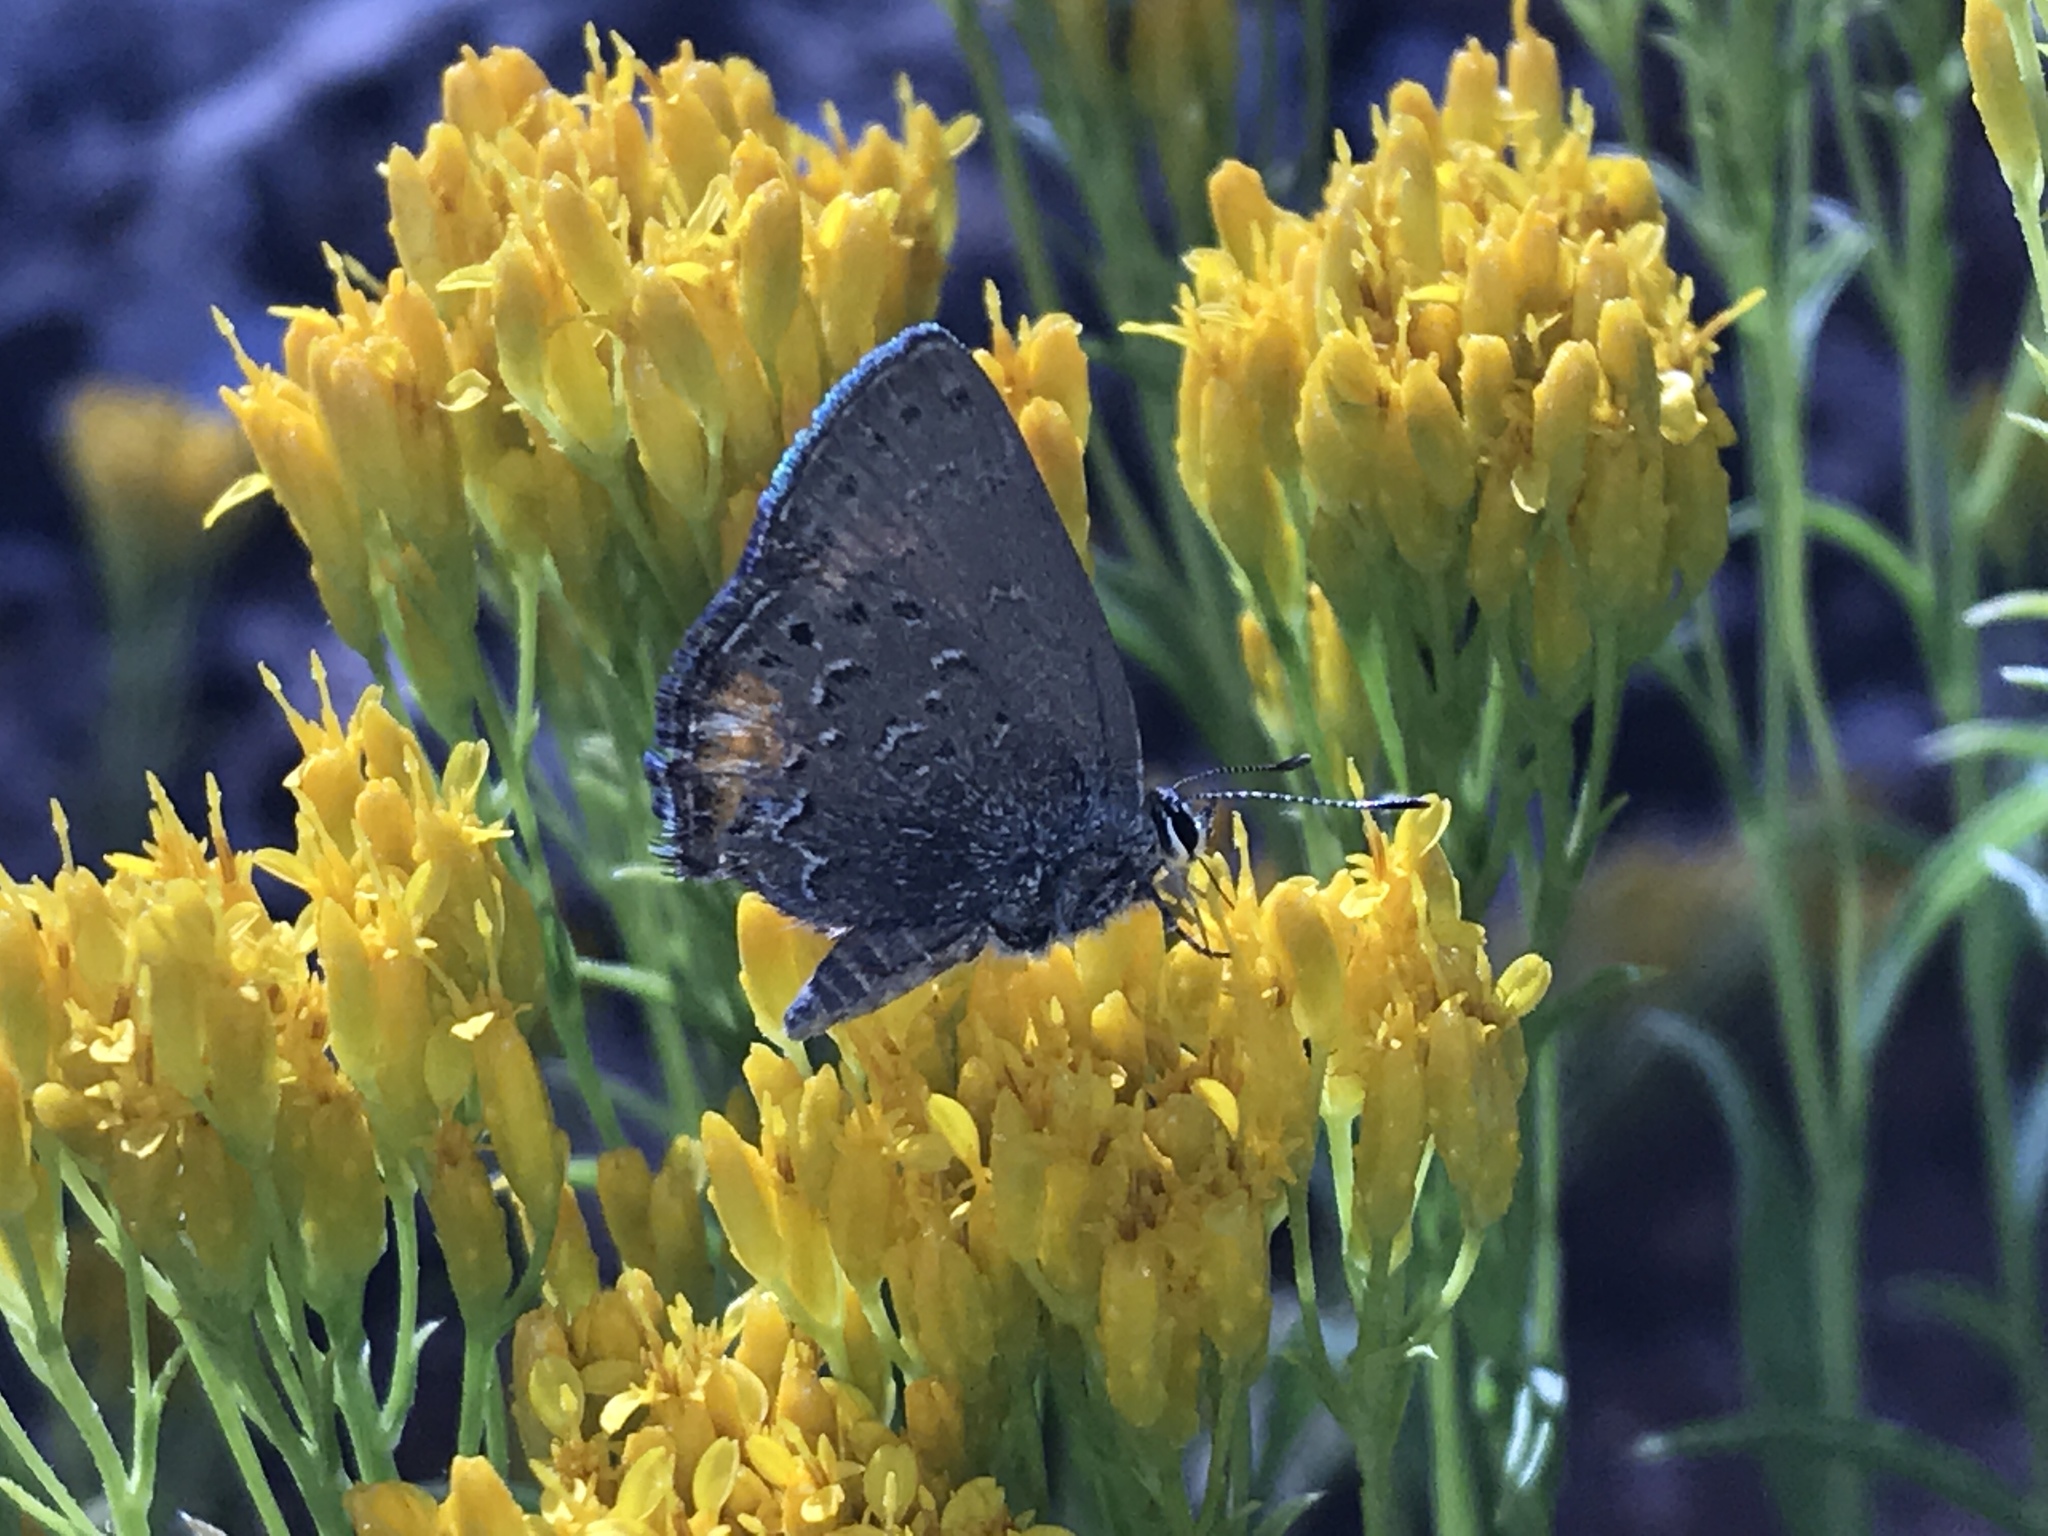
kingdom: Animalia
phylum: Arthropoda
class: Insecta
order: Lepidoptera
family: Lycaenidae
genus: Satyrium
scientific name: Satyrium behrii
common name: Behr's hairstreak
